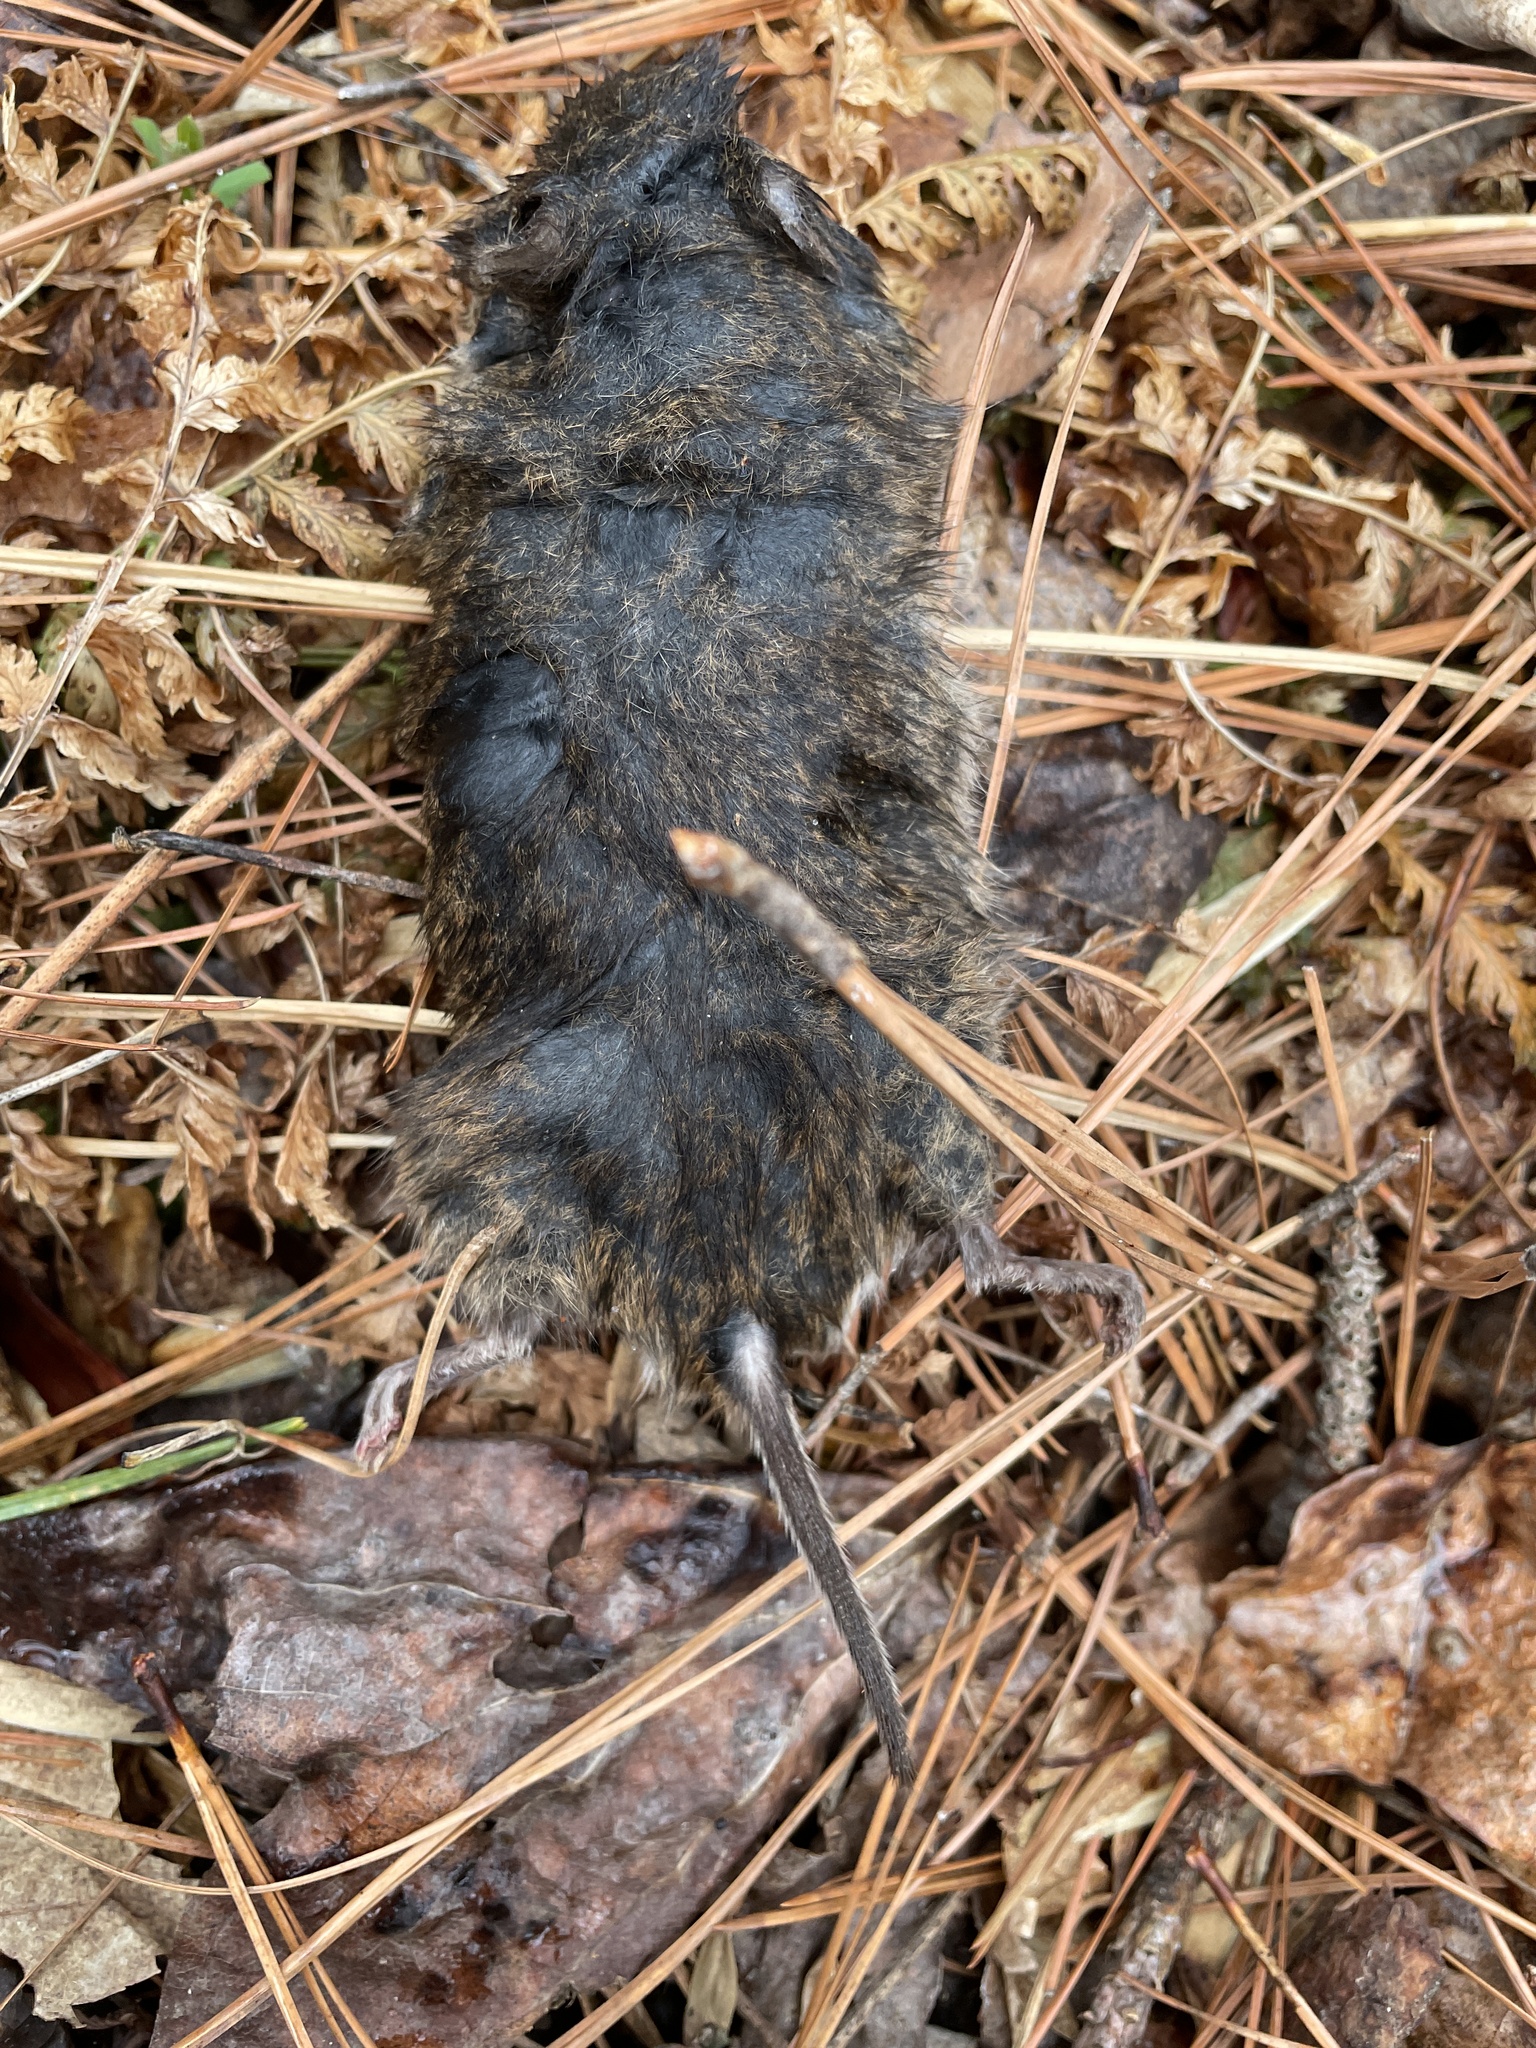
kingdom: Animalia
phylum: Chordata
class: Mammalia
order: Rodentia
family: Cricetidae
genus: Microtus
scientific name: Microtus pennsylvanicus
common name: Meadow vole
